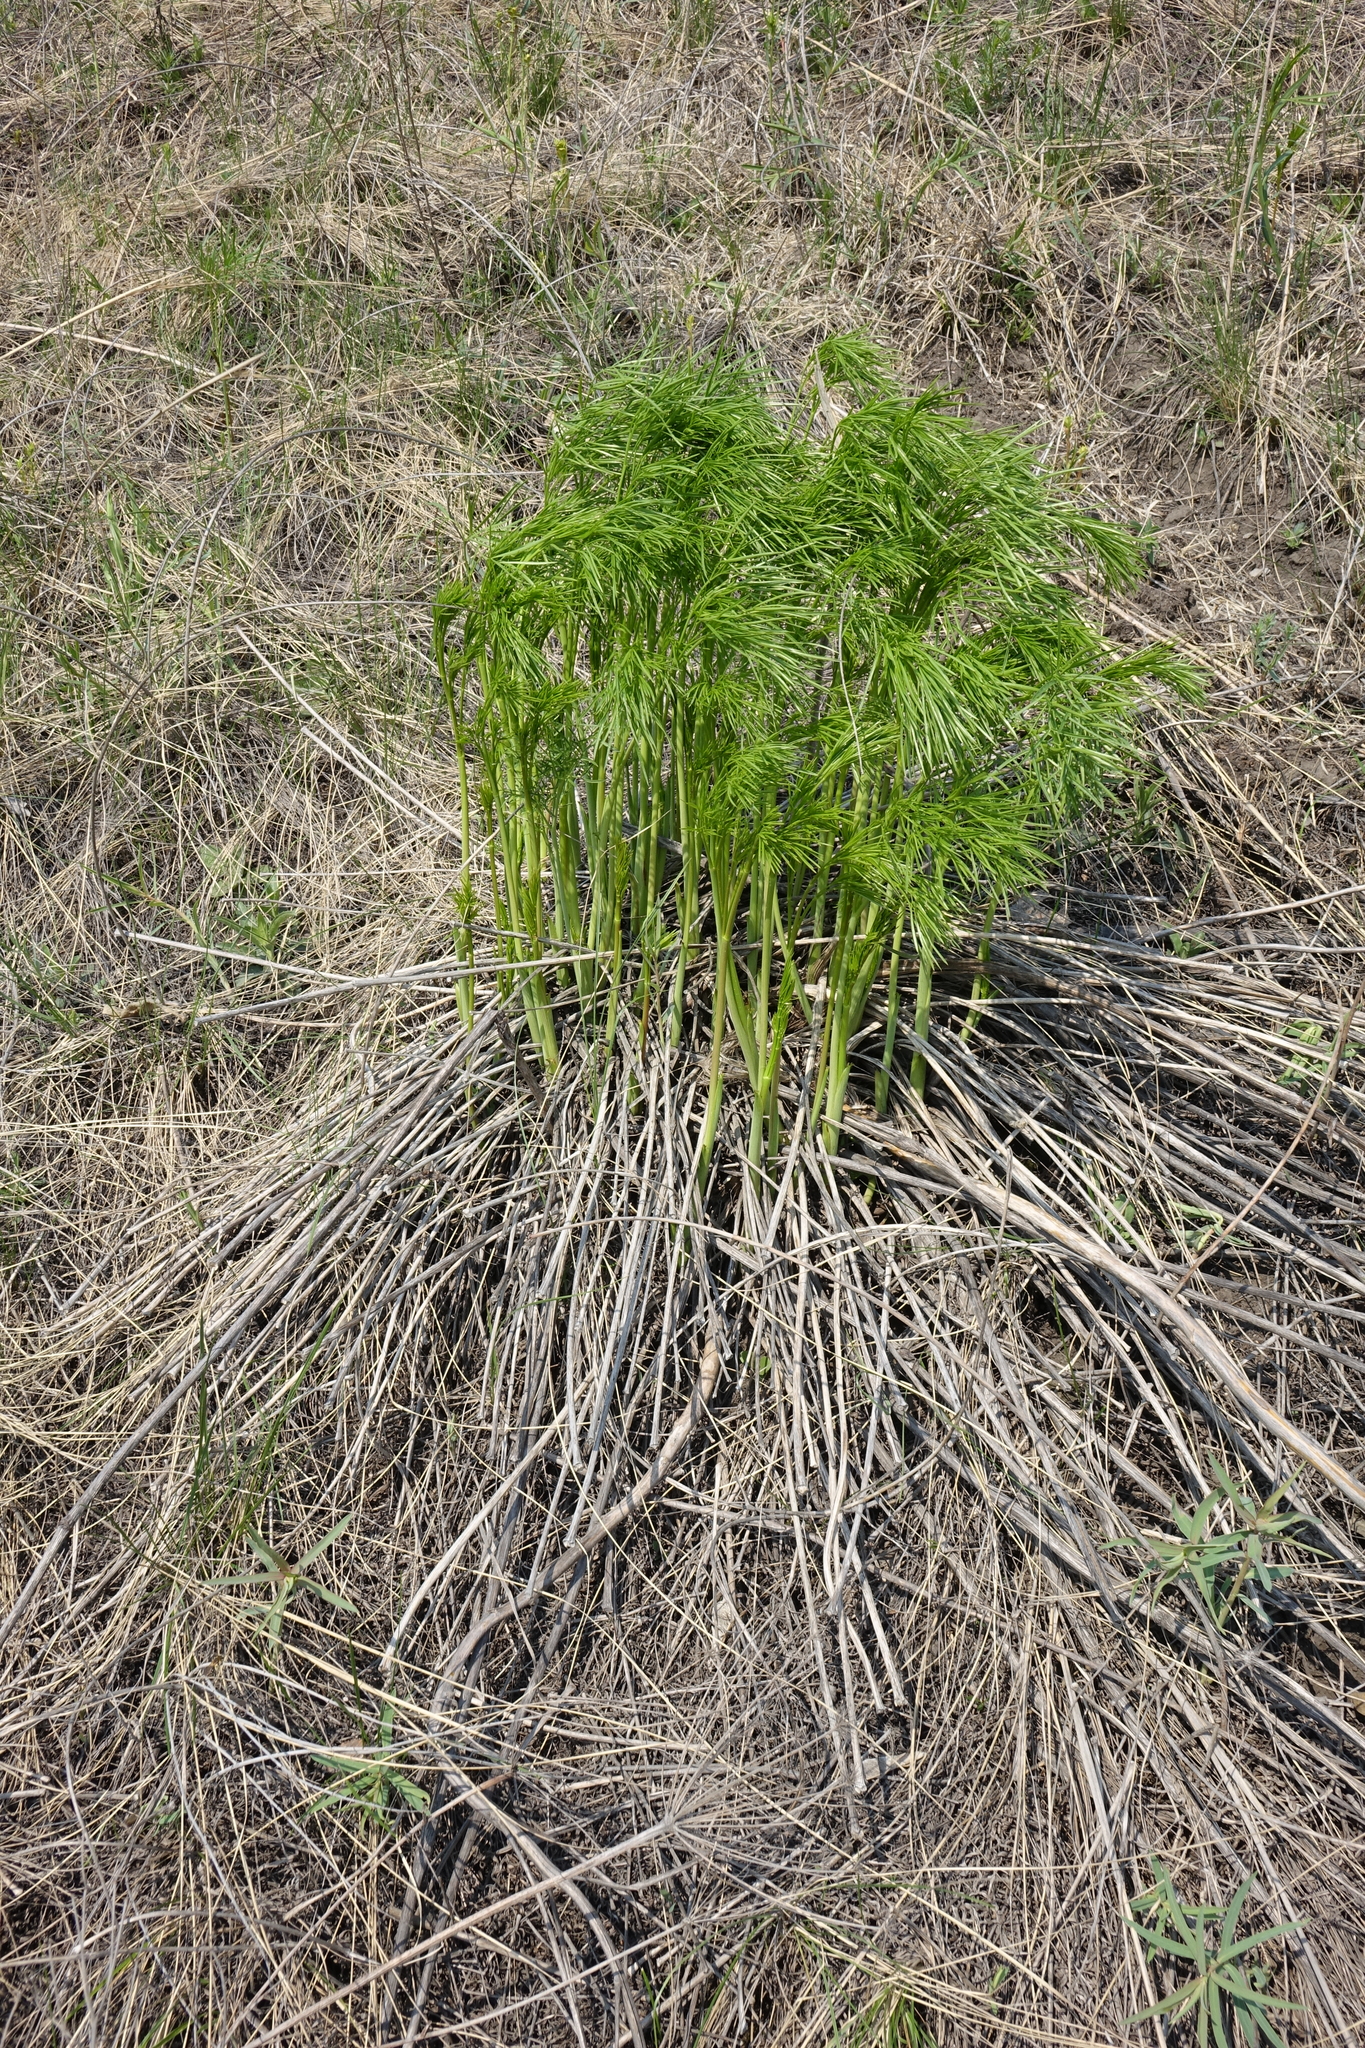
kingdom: Plantae
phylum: Tracheophyta
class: Magnoliopsida
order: Apiales
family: Apiaceae
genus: Peucedanum
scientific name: Peucedanum morisonii
